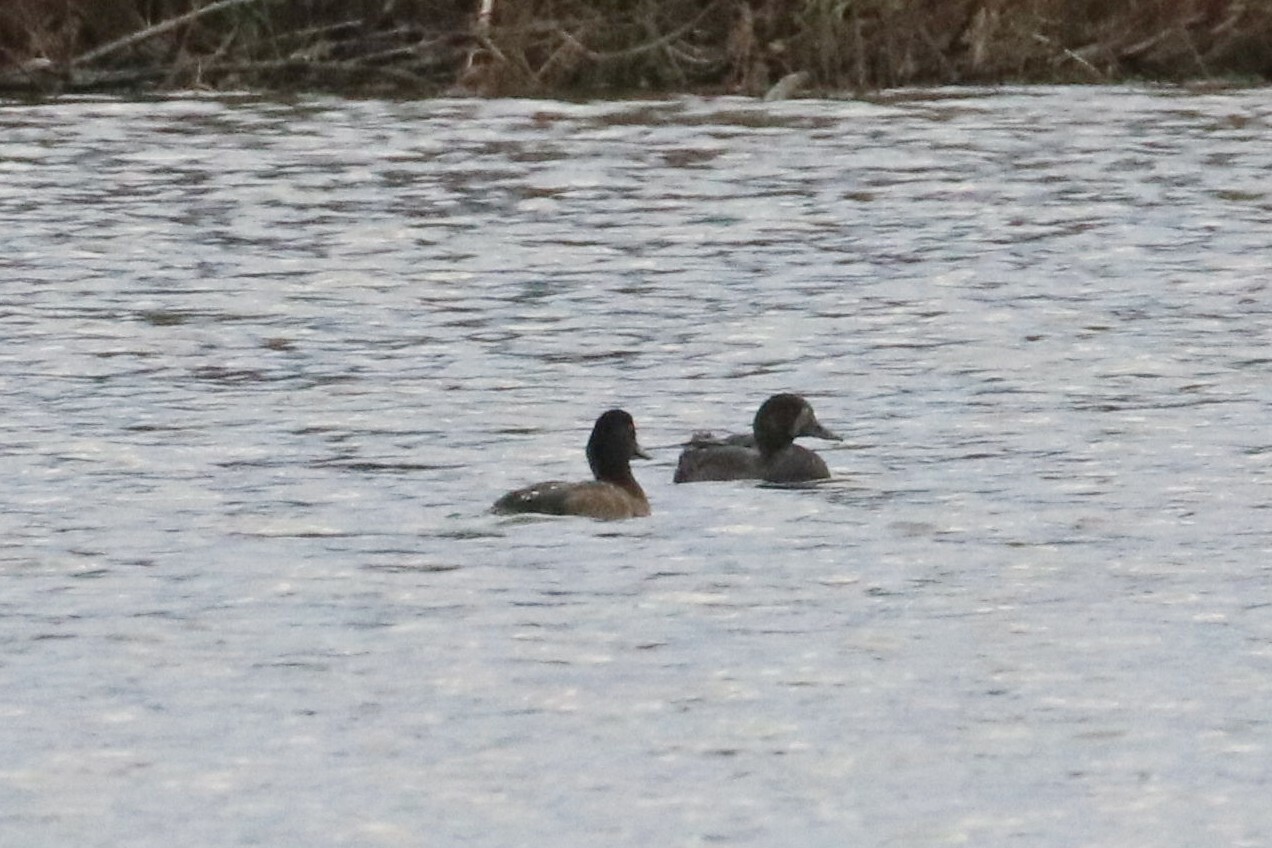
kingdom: Animalia
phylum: Chordata
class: Aves
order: Anseriformes
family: Anatidae
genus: Aythya
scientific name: Aythya marila
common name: Greater scaup
